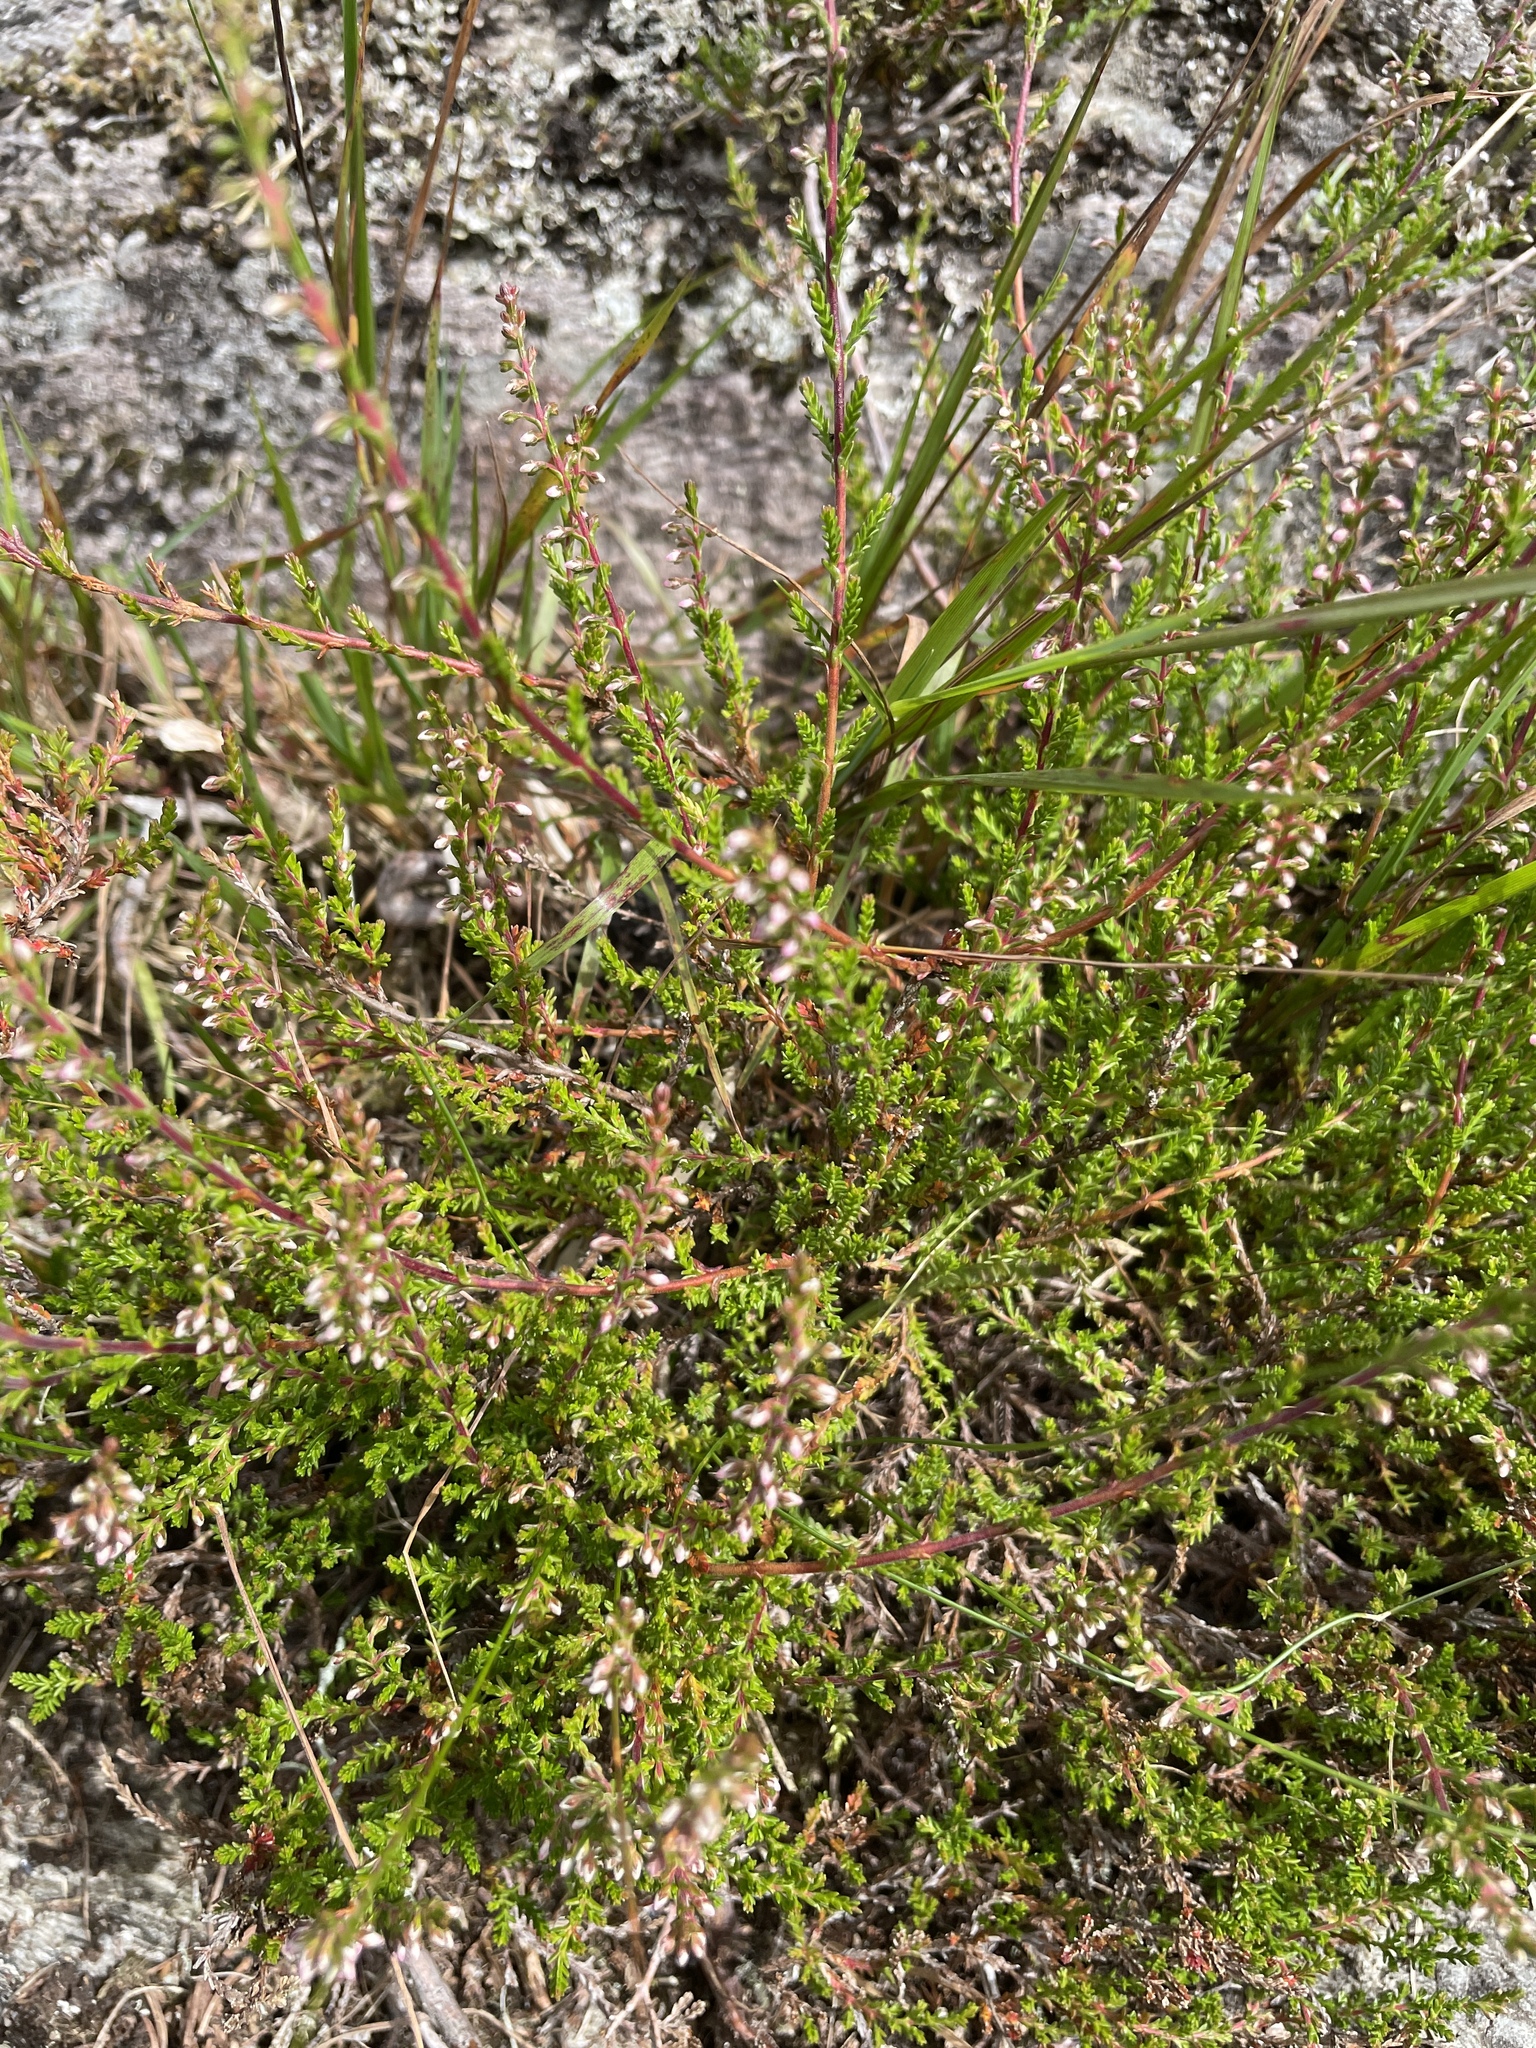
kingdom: Plantae
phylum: Tracheophyta
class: Magnoliopsida
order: Ericales
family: Ericaceae
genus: Calluna
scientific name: Calluna vulgaris
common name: Heather
